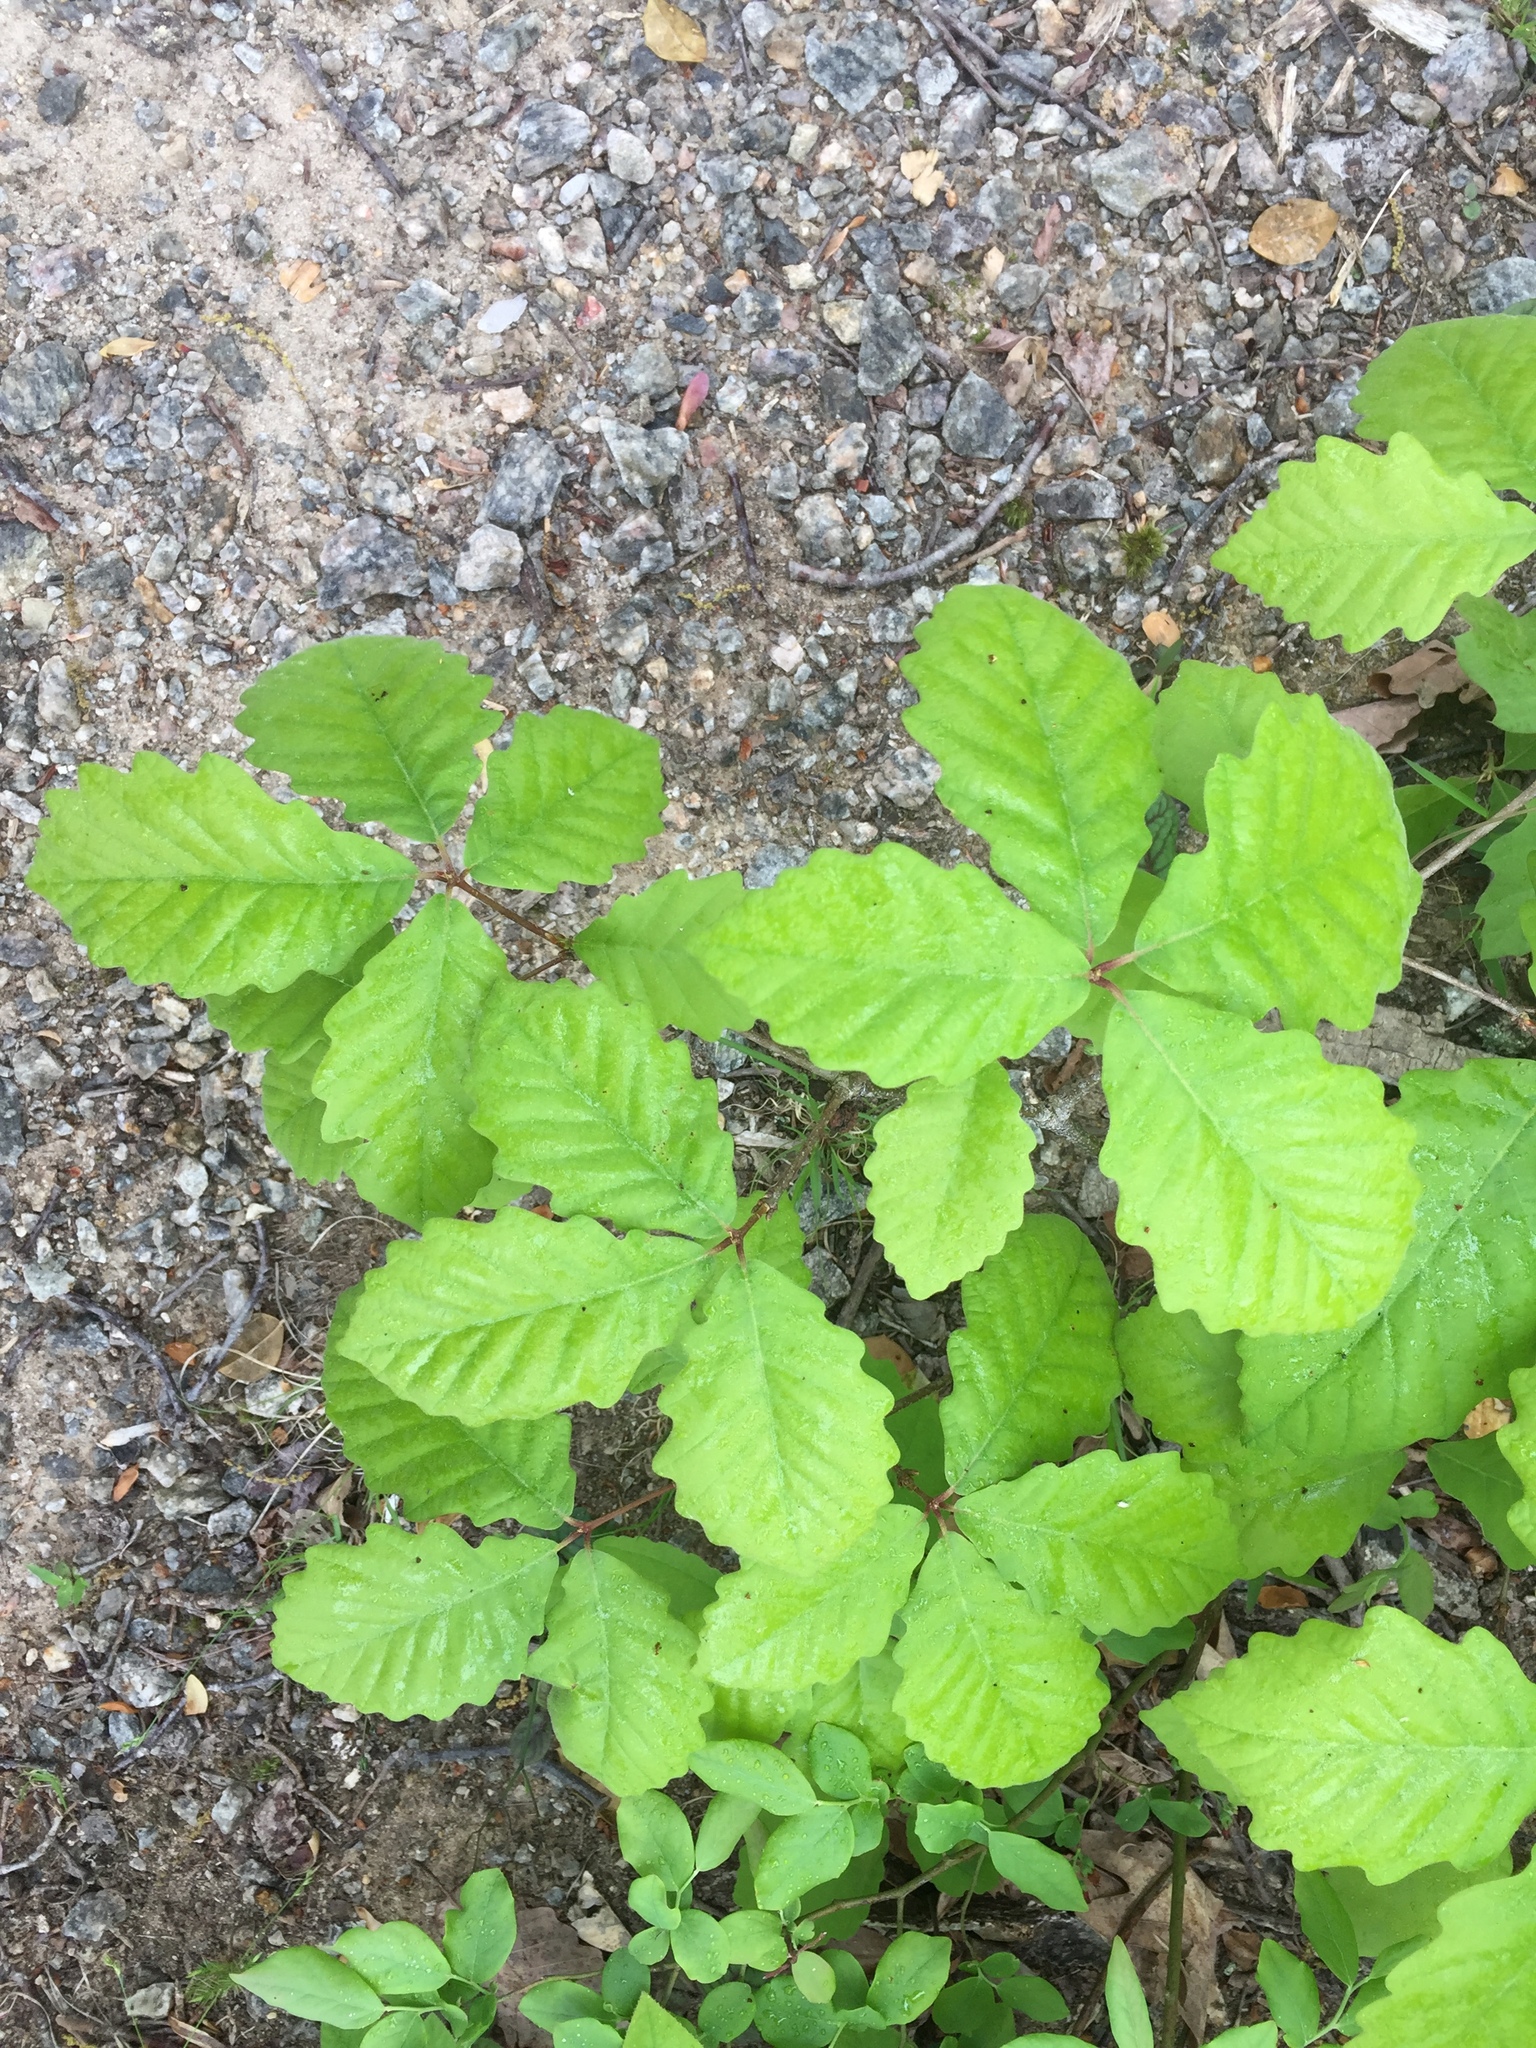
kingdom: Plantae
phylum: Tracheophyta
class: Magnoliopsida
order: Fagales
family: Fagaceae
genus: Quercus
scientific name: Quercus montana
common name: Chestnut oak
